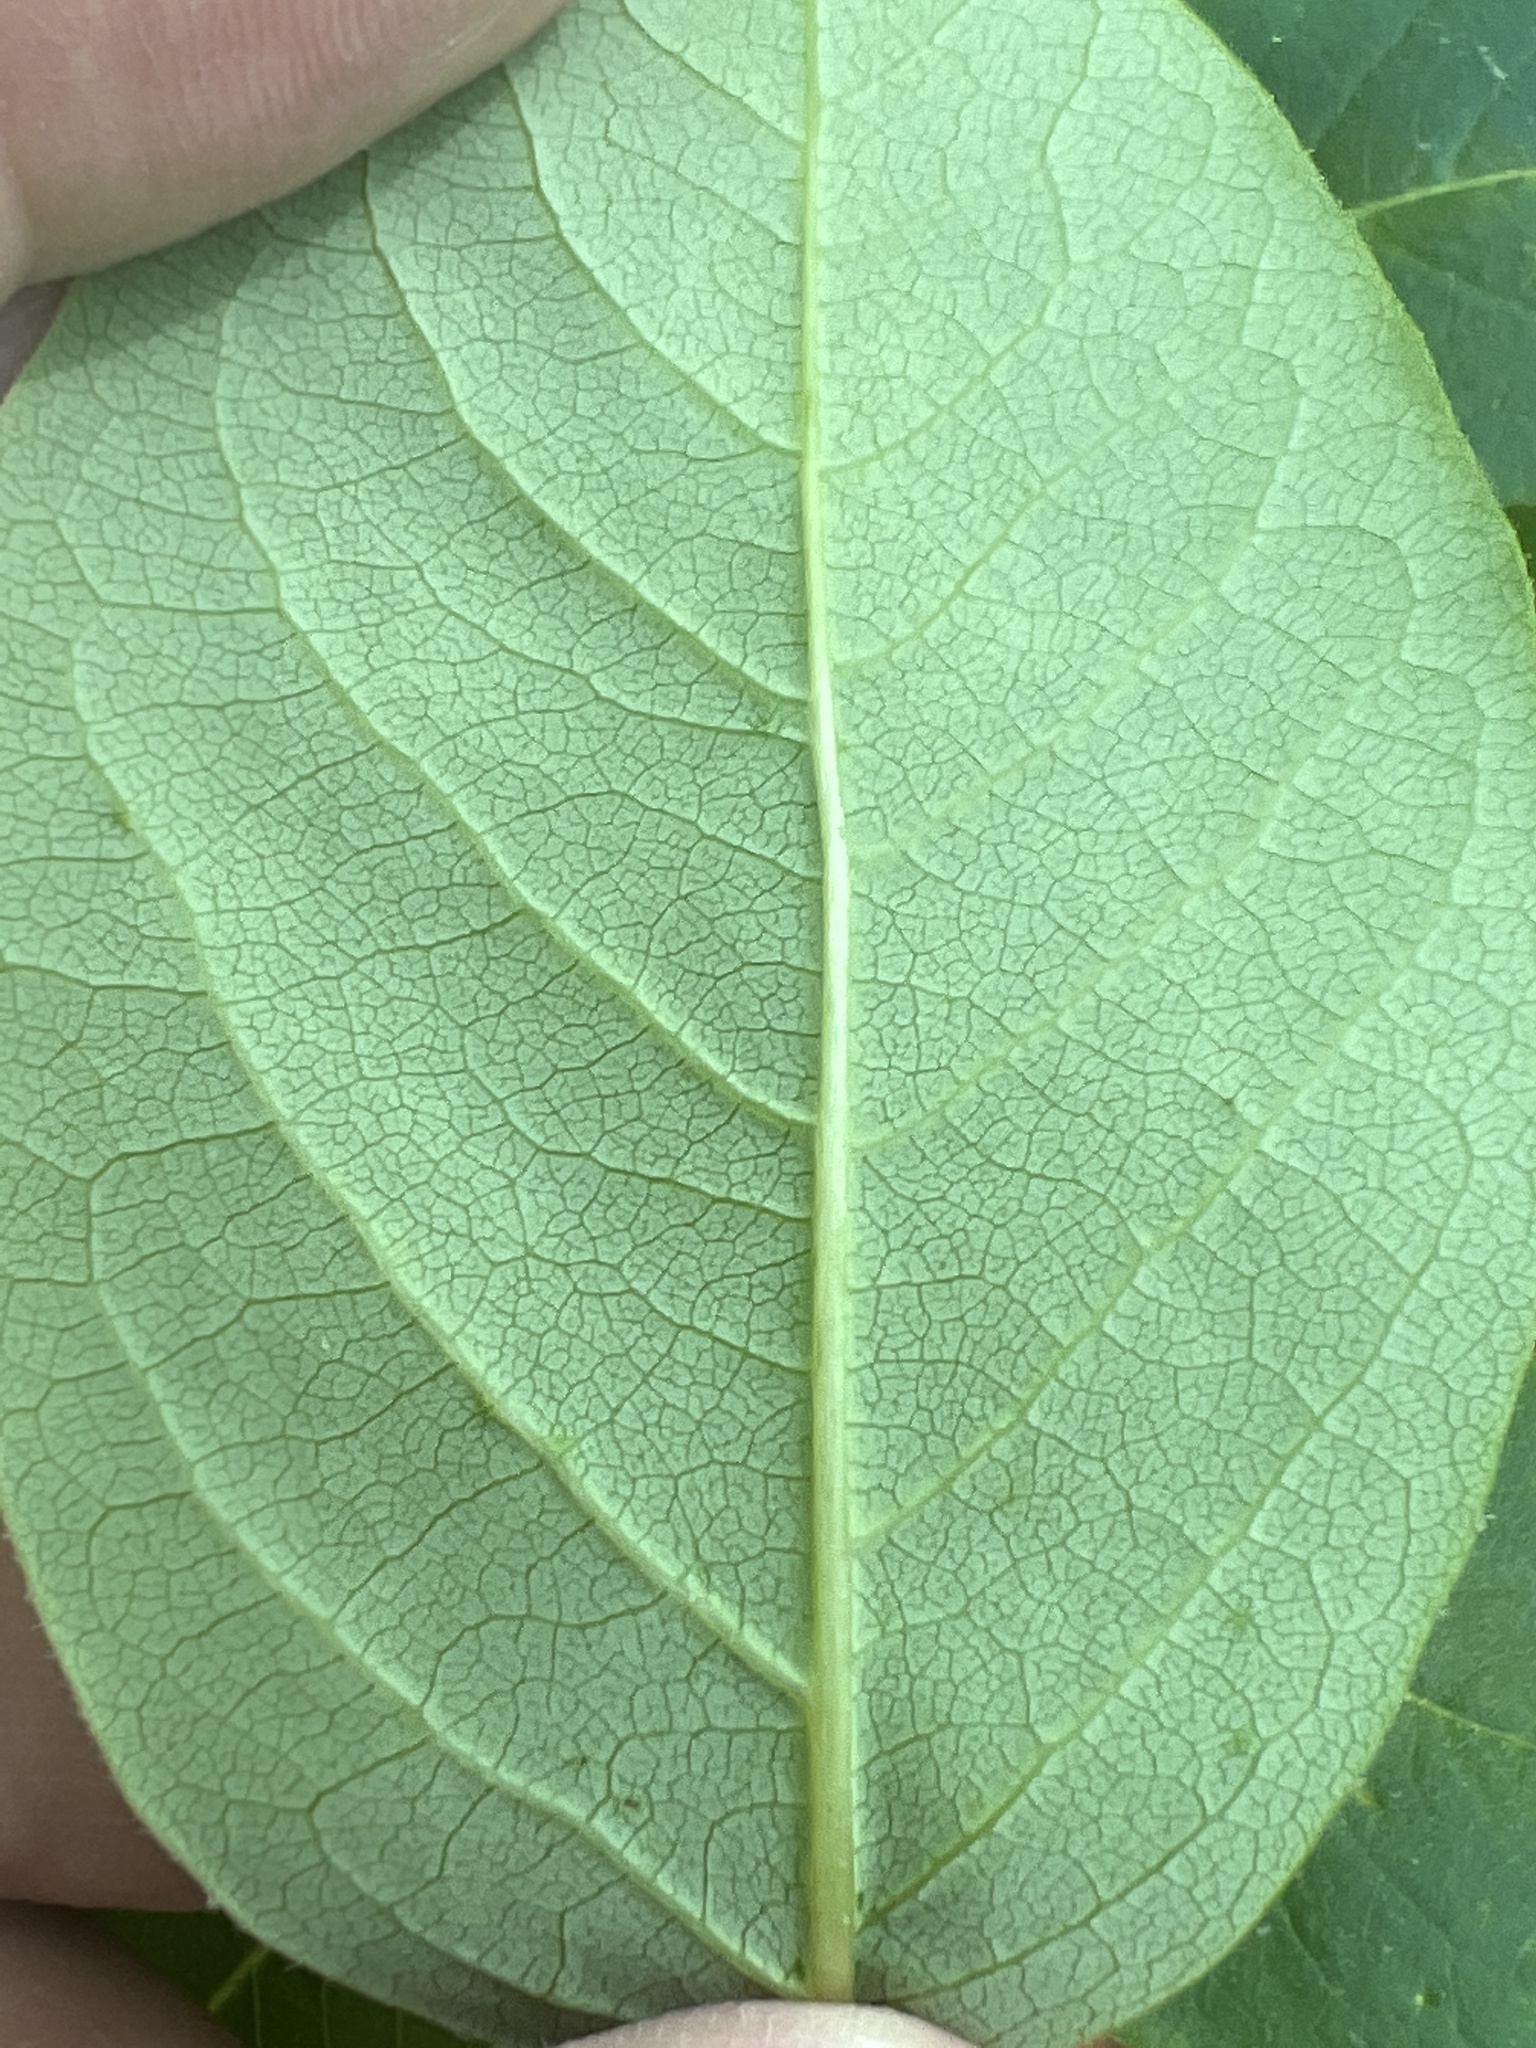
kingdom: Plantae
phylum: Tracheophyta
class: Magnoliopsida
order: Ericales
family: Ebenaceae
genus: Diospyros
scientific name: Diospyros virginiana
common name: Persimmon
